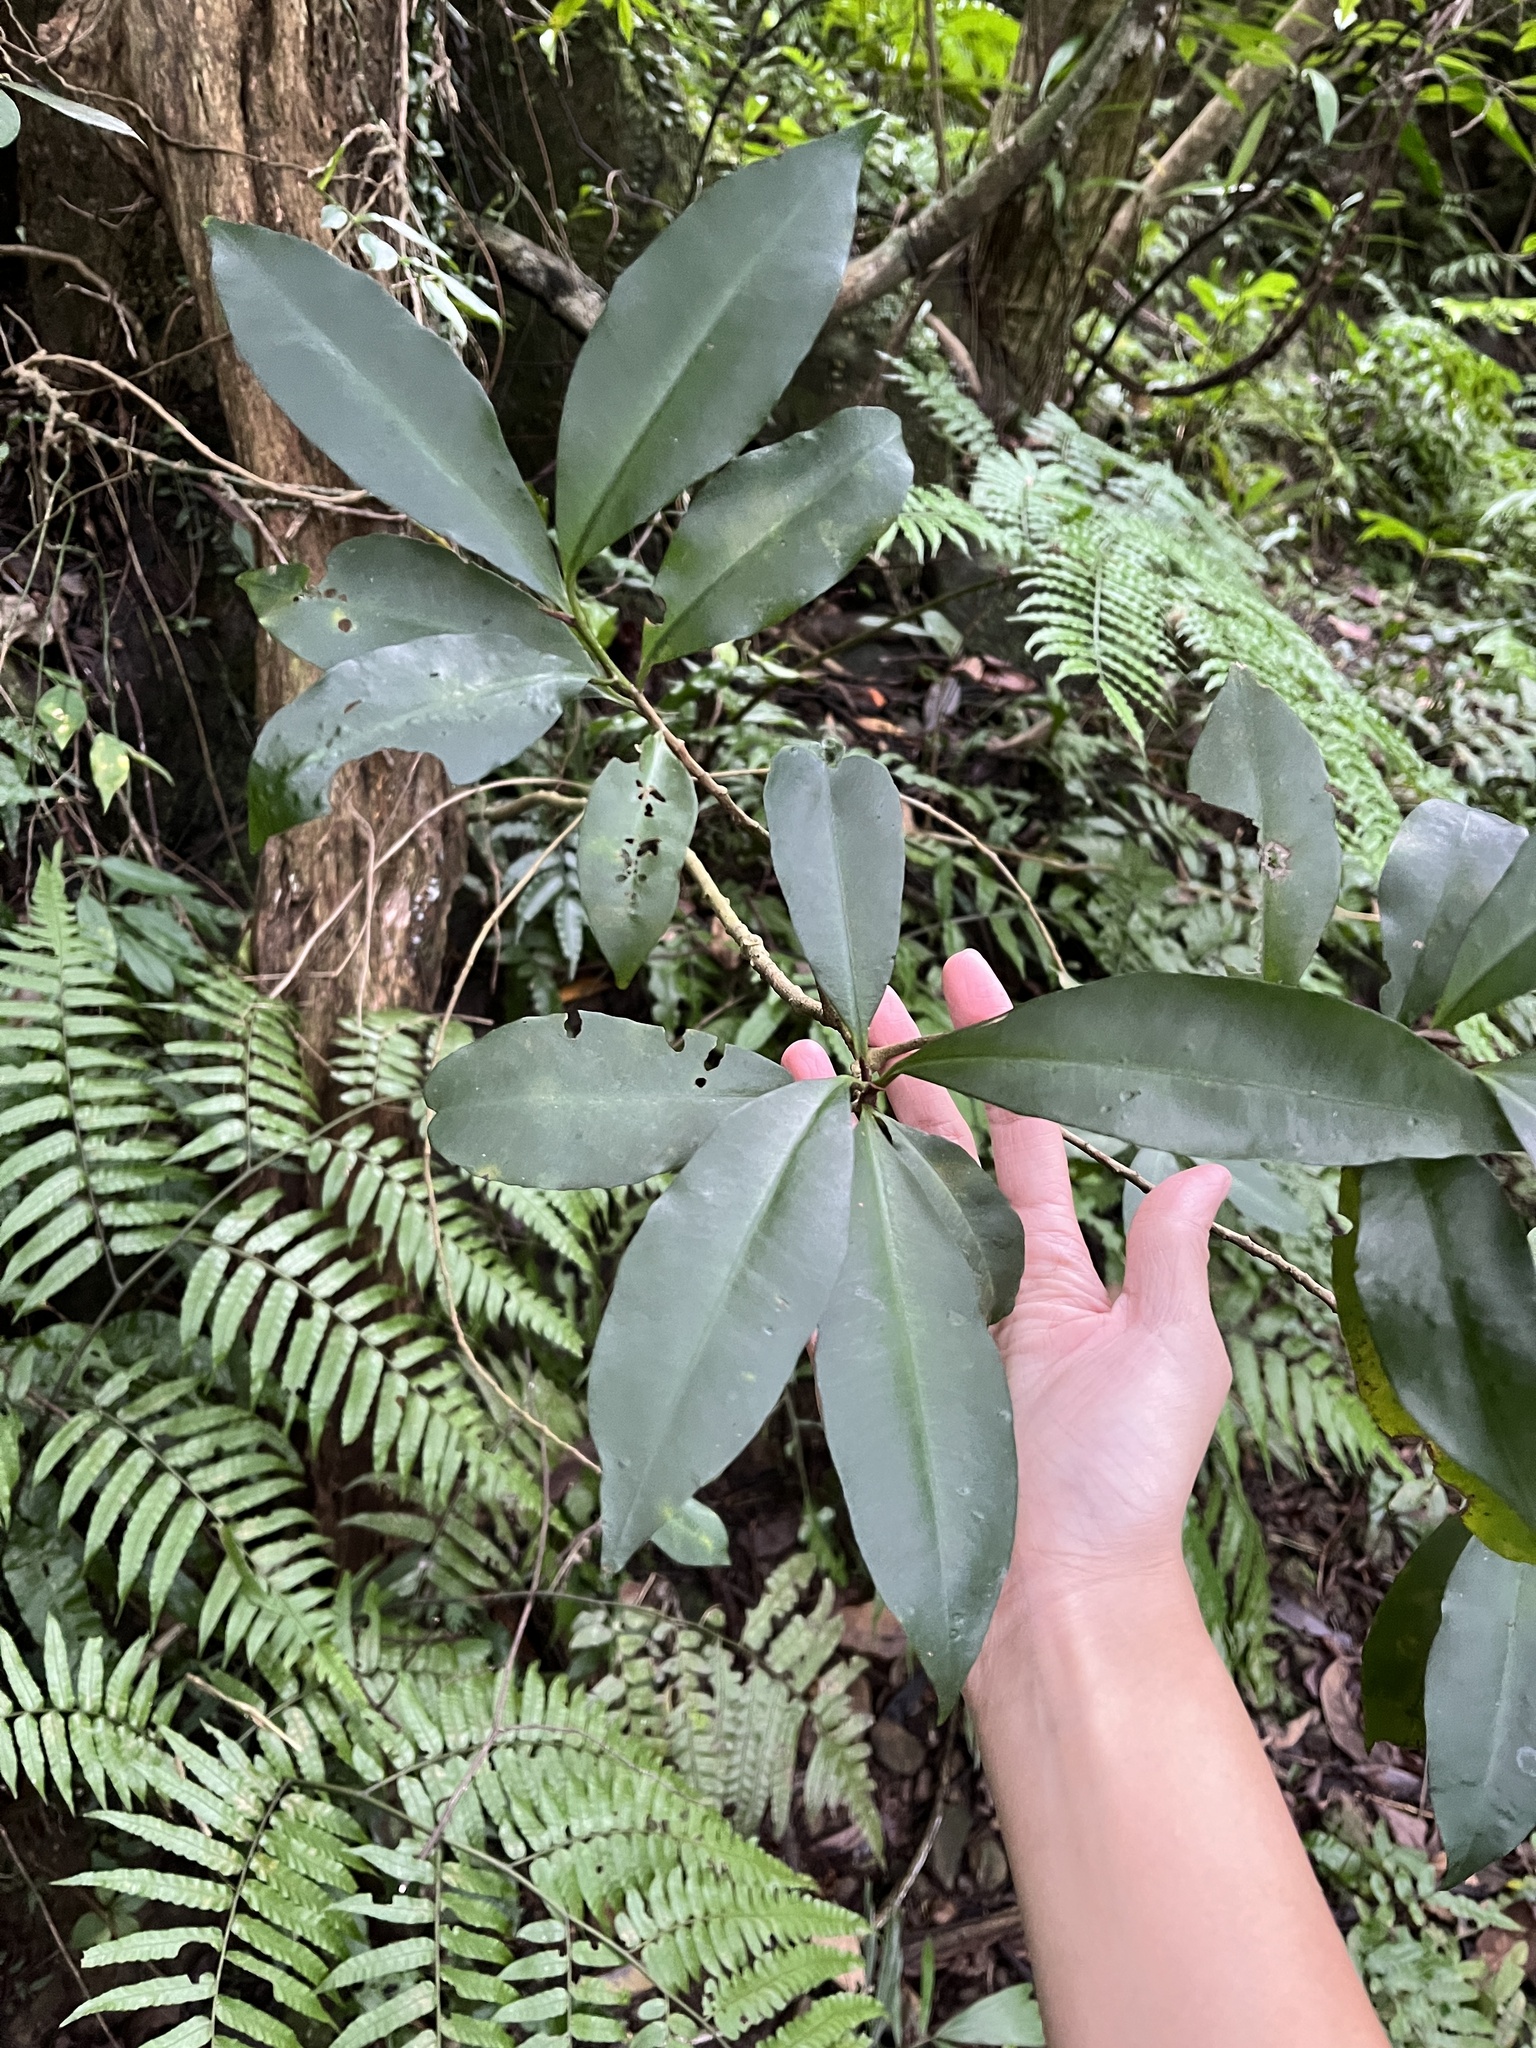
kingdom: Plantae
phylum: Tracheophyta
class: Magnoliopsida
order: Ericales
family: Primulaceae
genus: Ardisia
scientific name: Ardisia quinquegona
